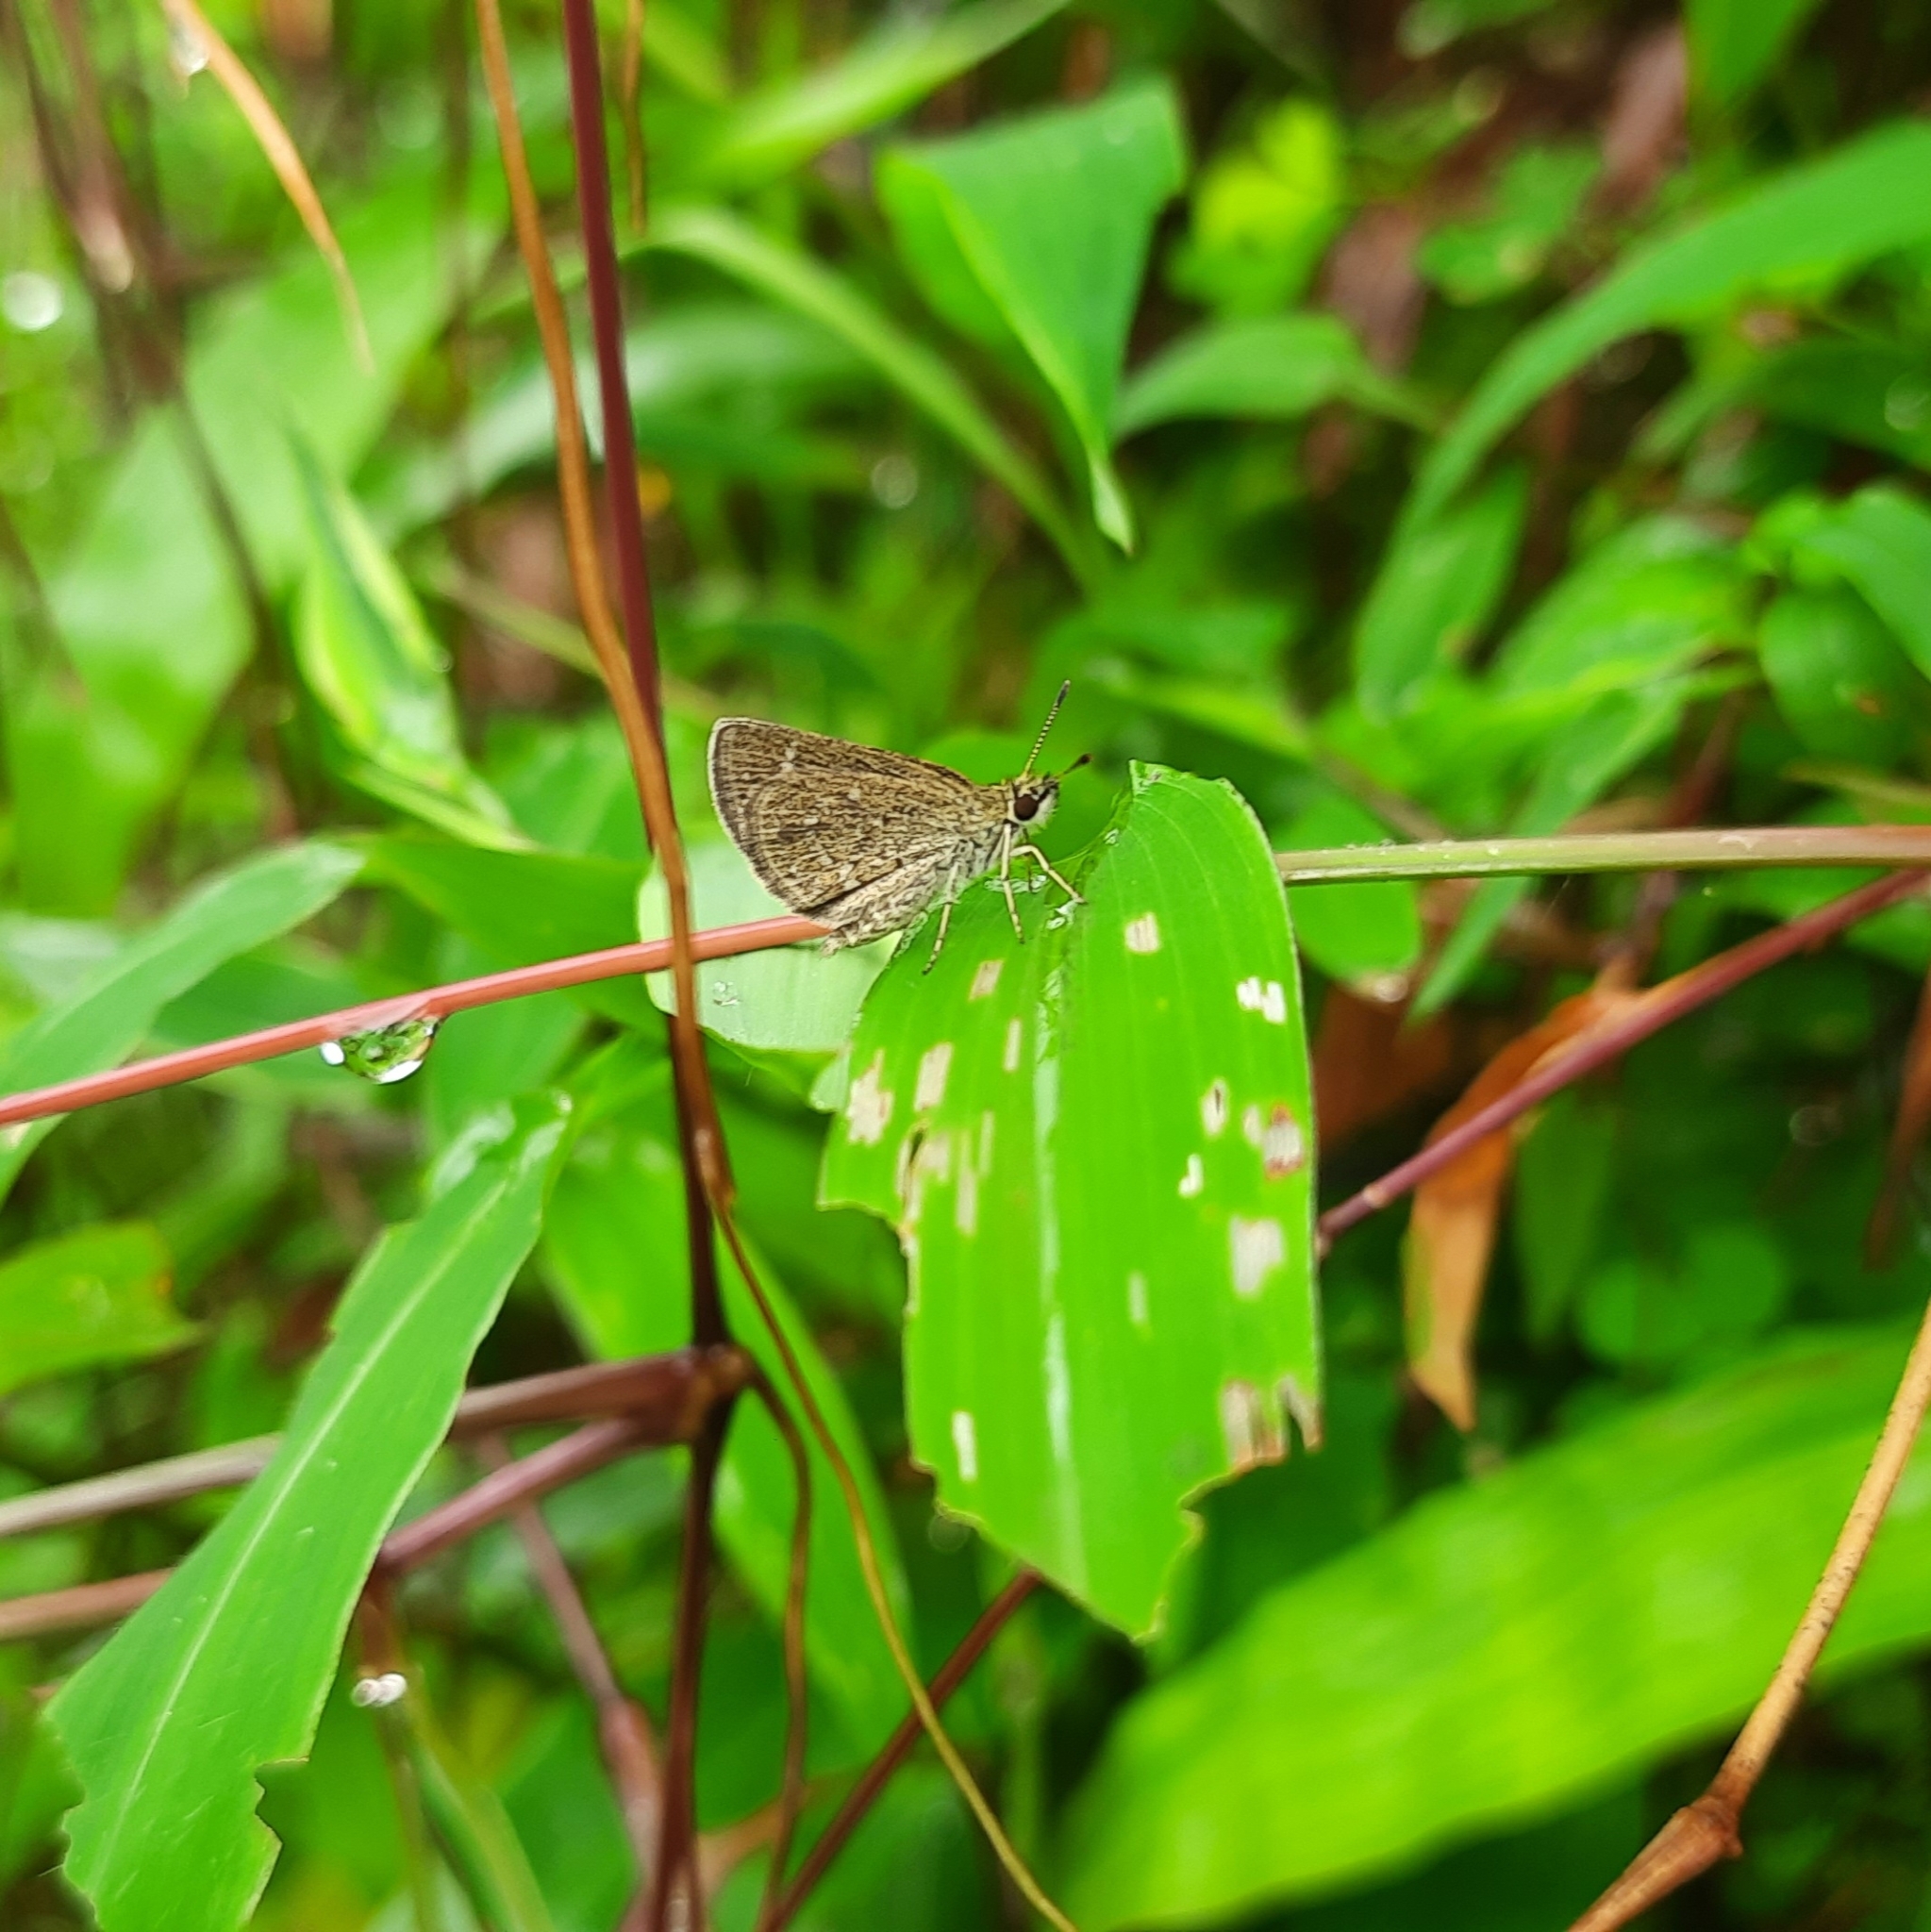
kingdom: Animalia
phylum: Arthropoda
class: Insecta
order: Lepidoptera
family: Hesperiidae
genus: Aeromachus
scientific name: Aeromachus pygmaeus
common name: Pygmy scrub hopper
